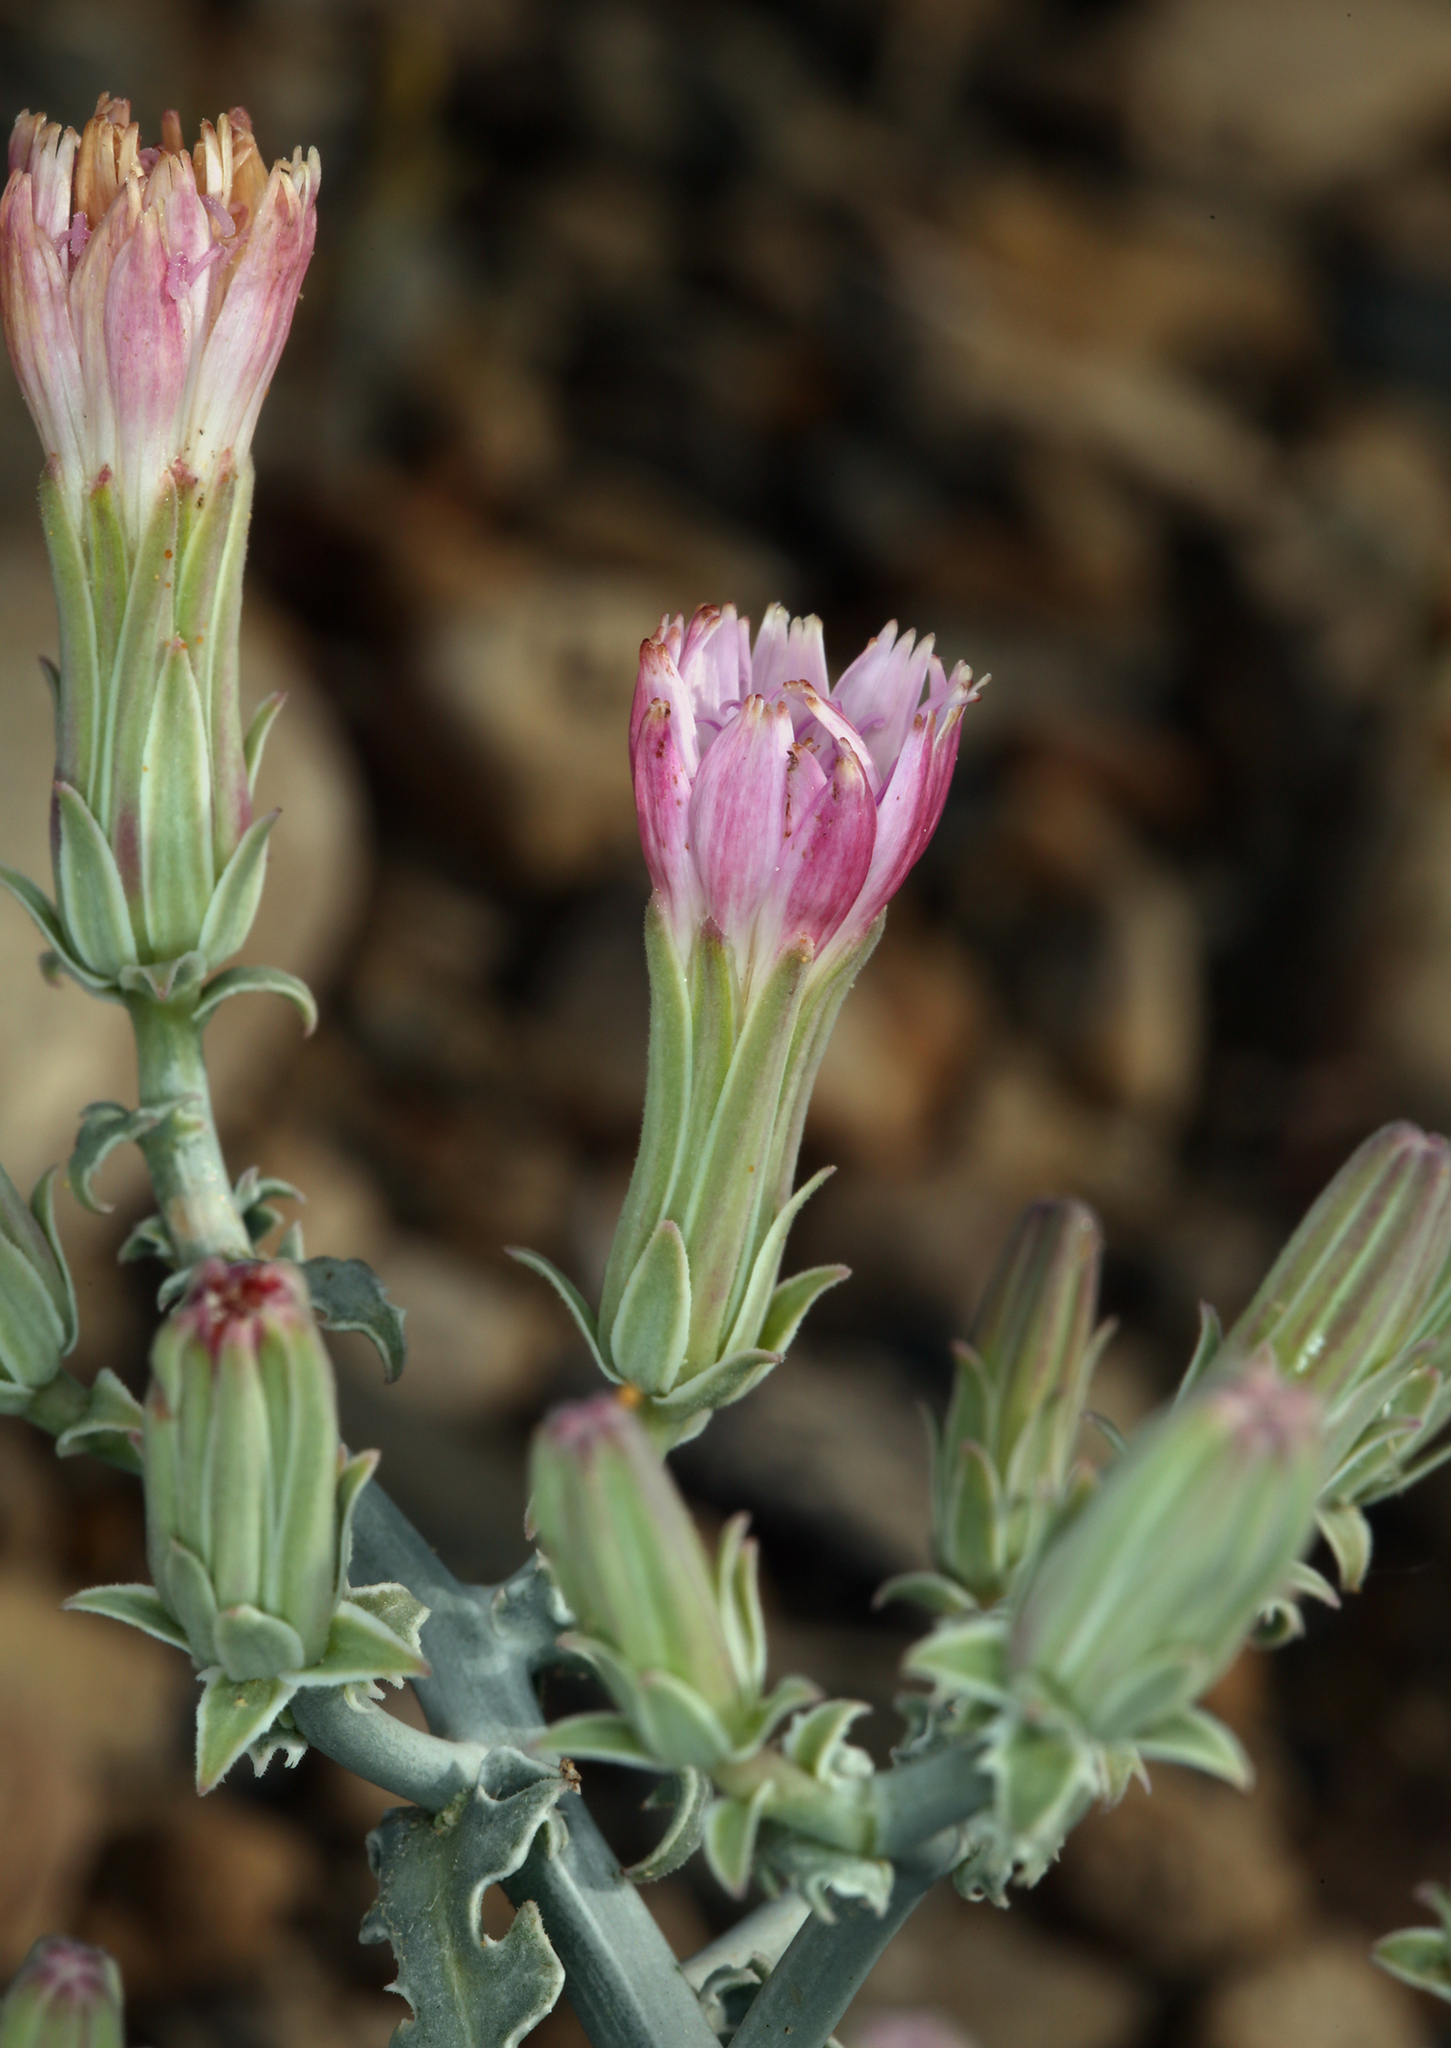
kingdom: Plantae
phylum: Tracheophyta
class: Magnoliopsida
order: Asterales
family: Asteraceae
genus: Stephanomeria
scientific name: Stephanomeria parryi
